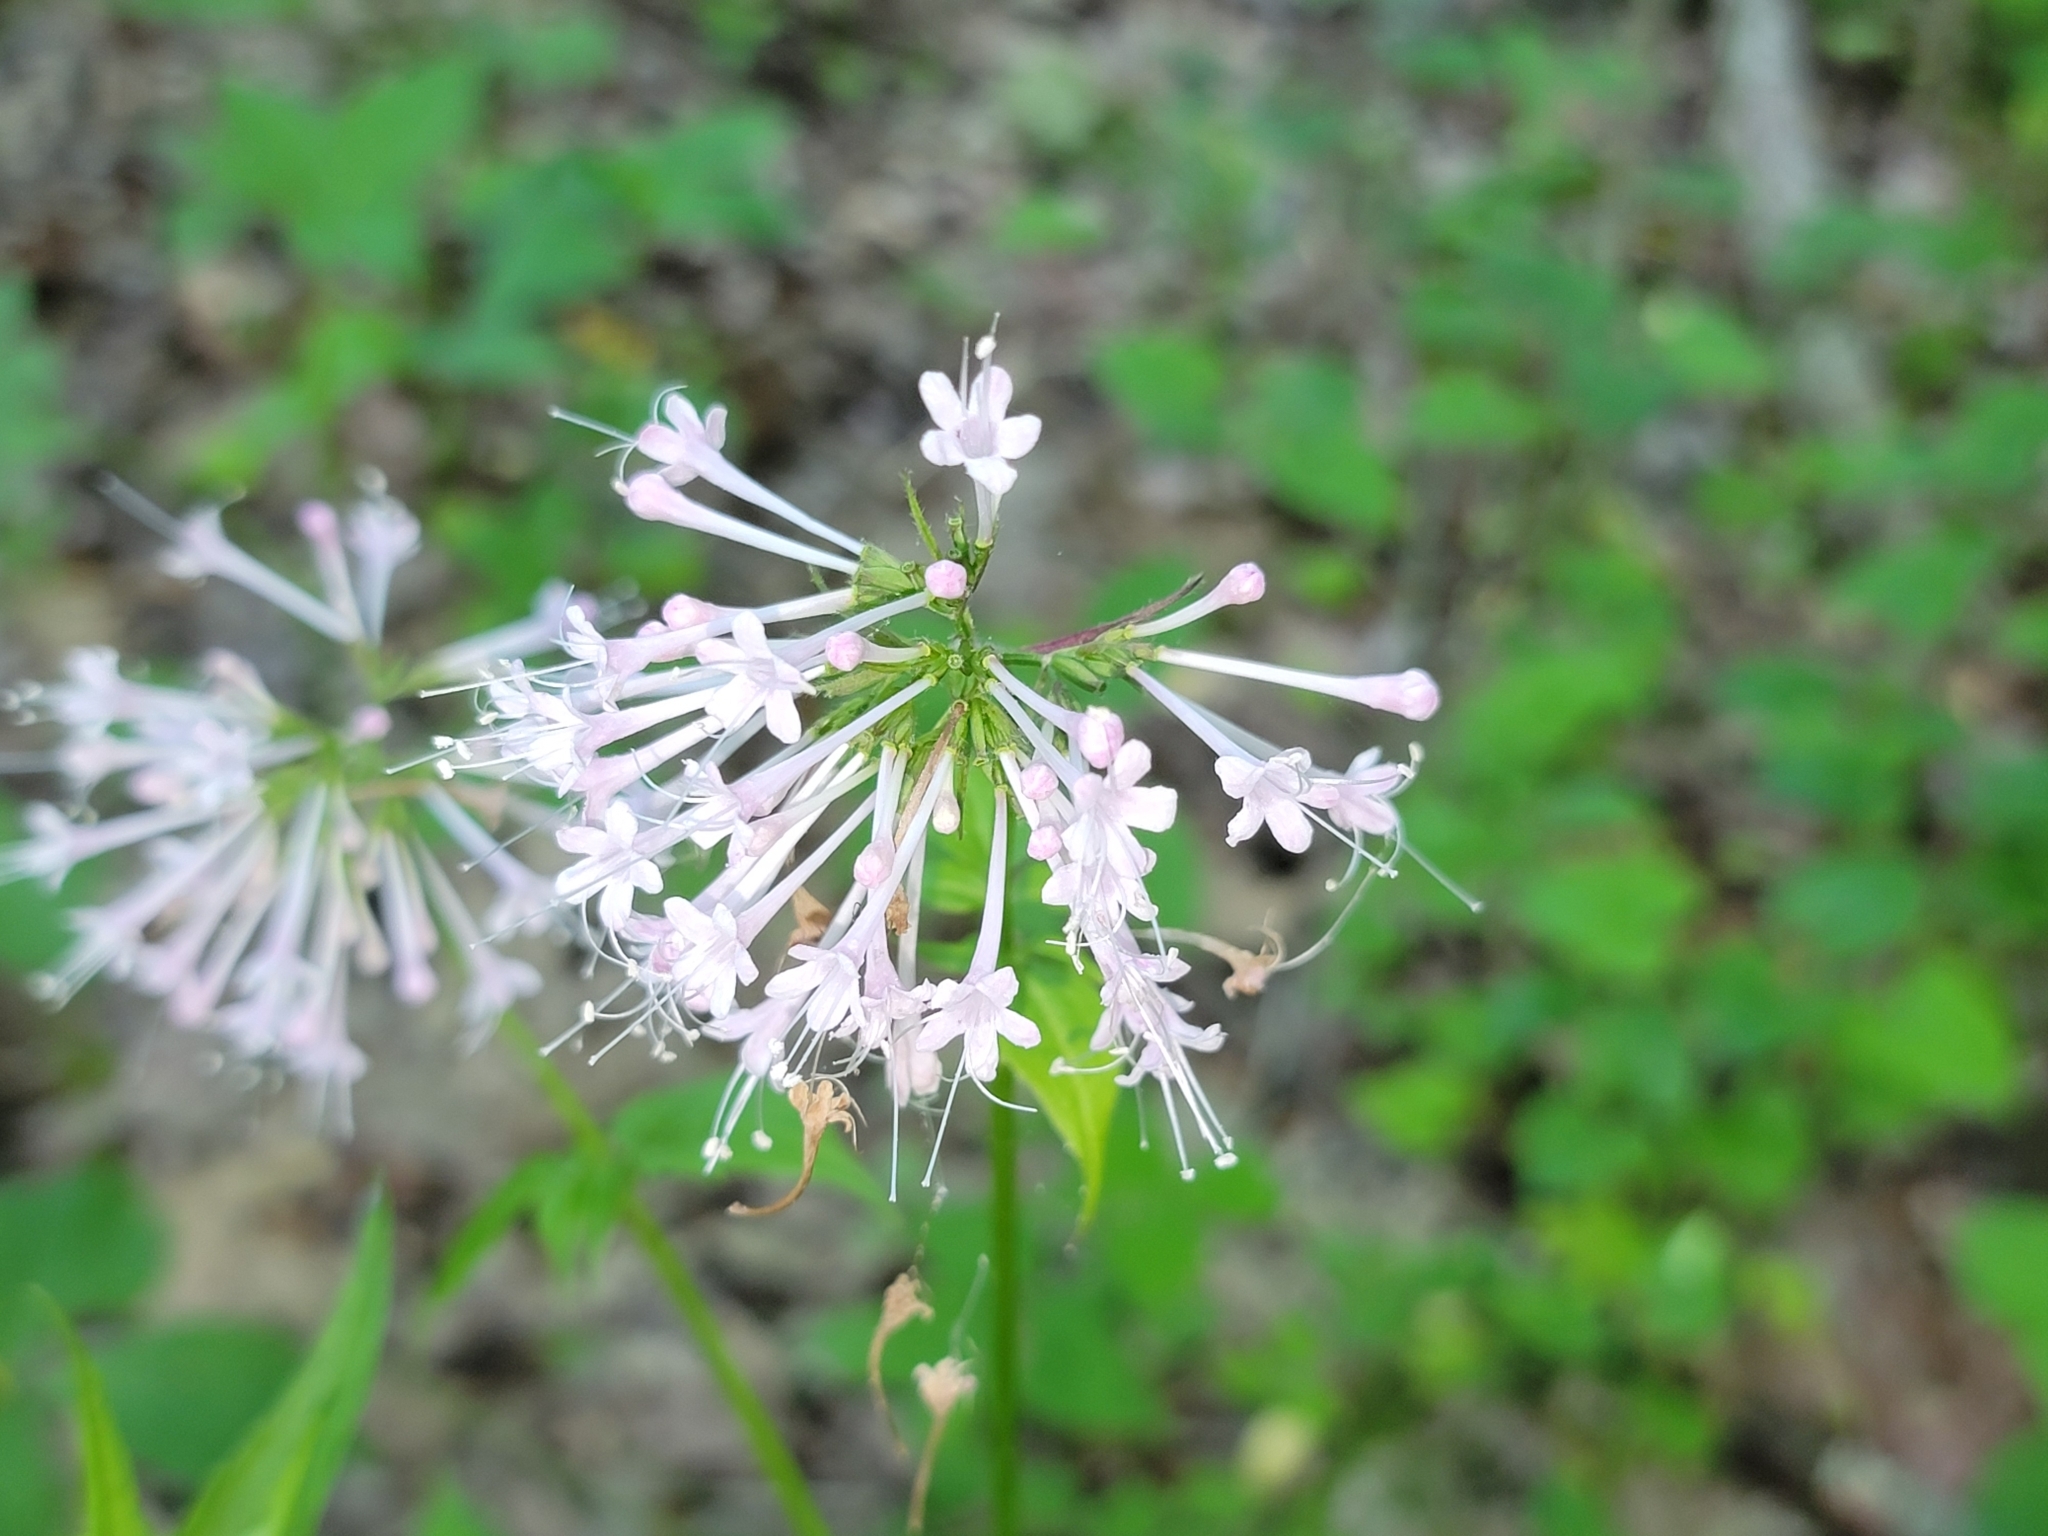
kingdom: Plantae
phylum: Tracheophyta
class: Magnoliopsida
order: Dipsacales
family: Caprifoliaceae
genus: Valeriana
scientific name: Valeriana pauciflora
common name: Long-tube valeriana
